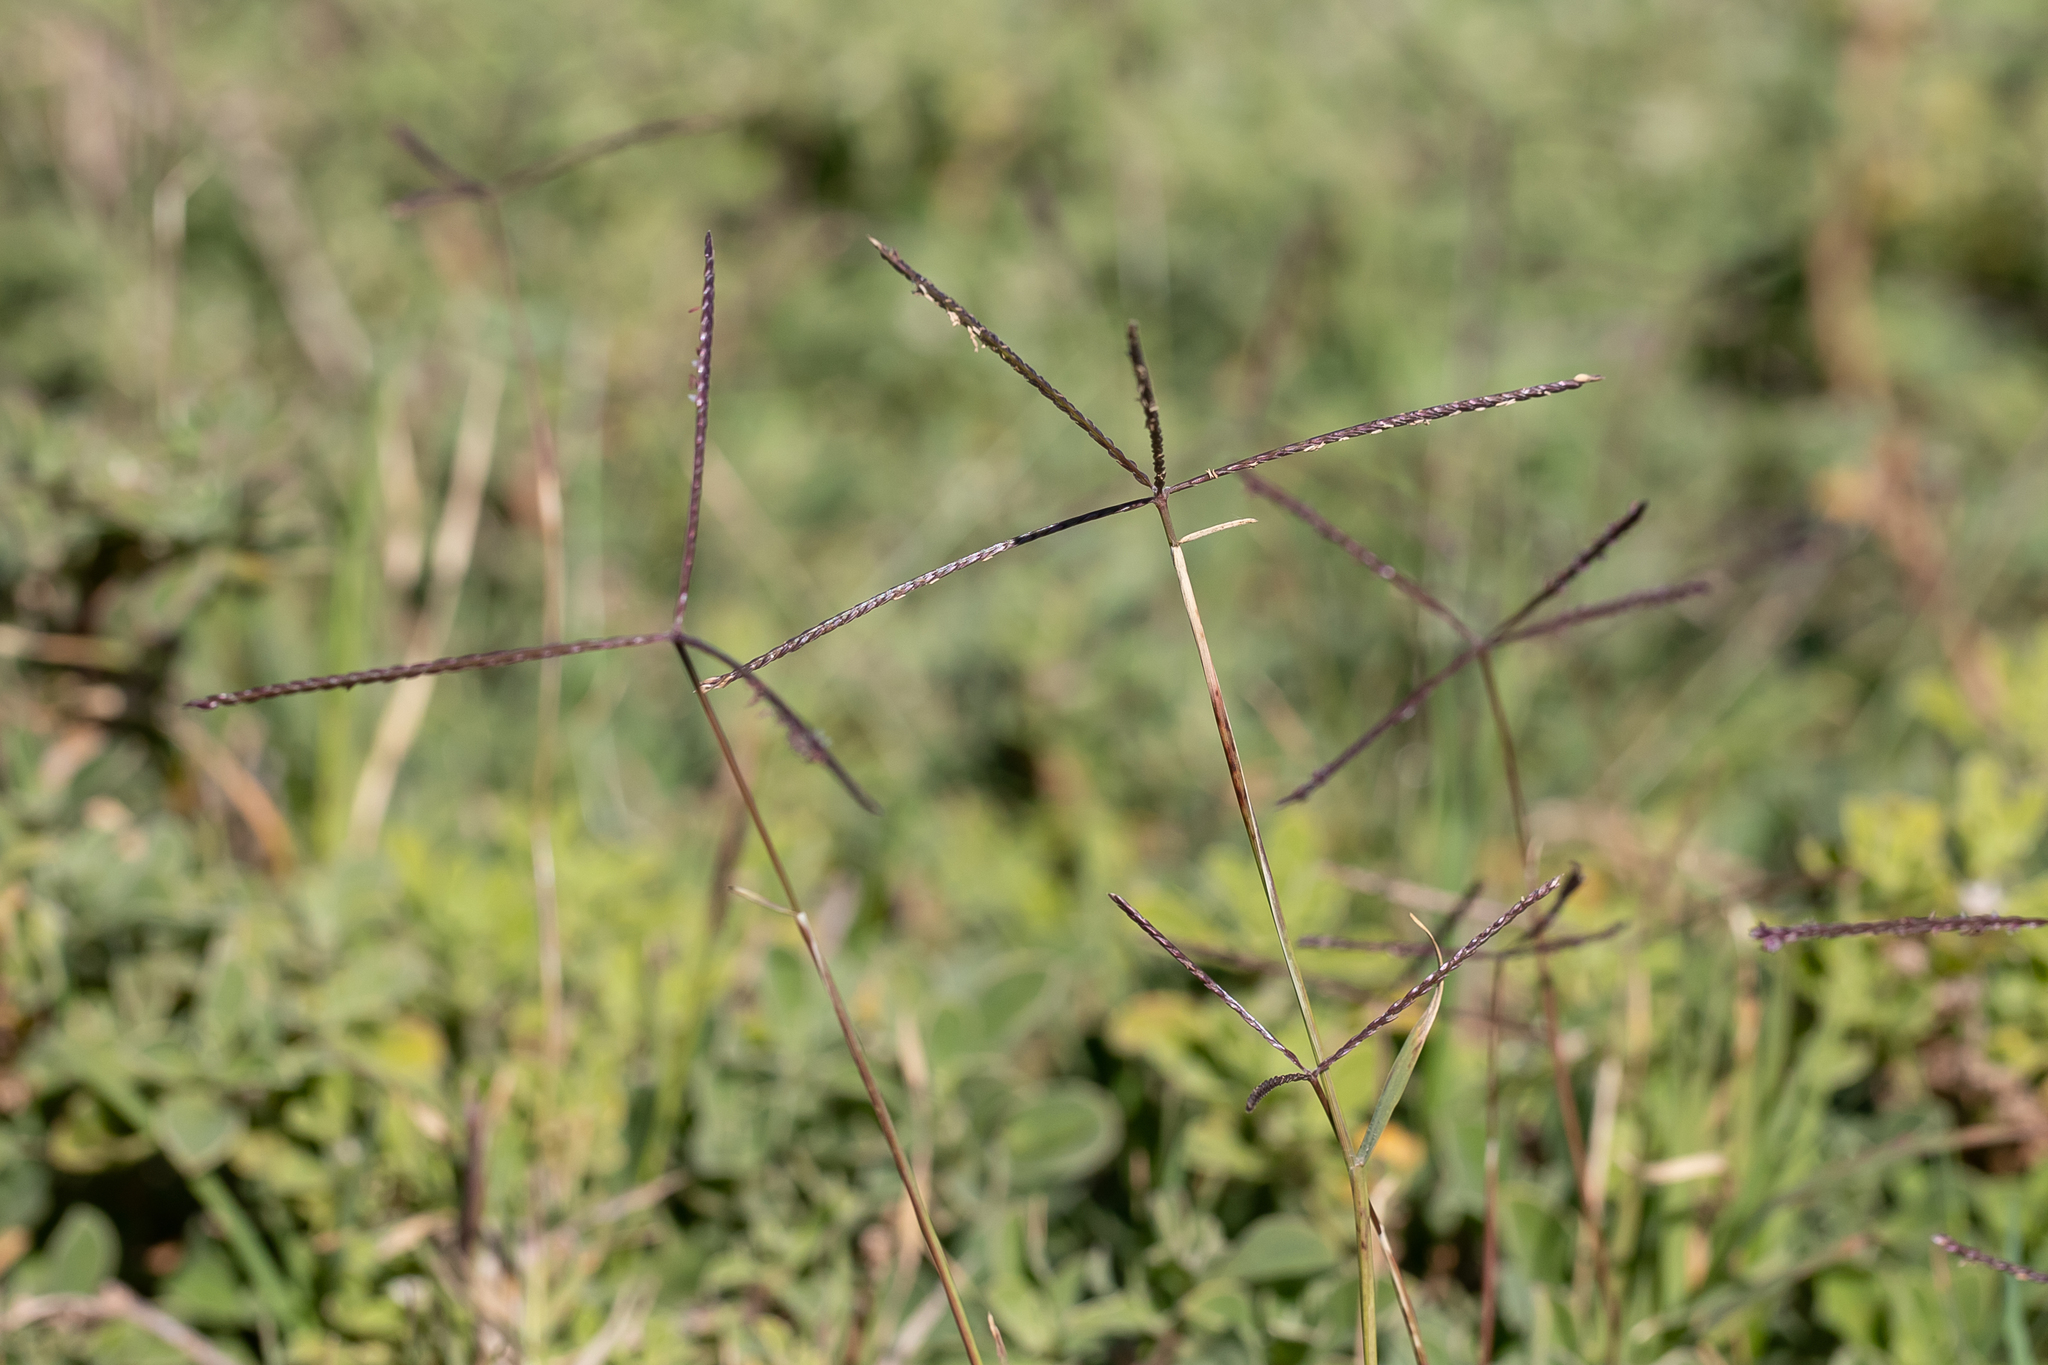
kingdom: Plantae
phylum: Tracheophyta
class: Liliopsida
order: Poales
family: Poaceae
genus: Cynodon
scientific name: Cynodon dactylon
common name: Bermuda grass
